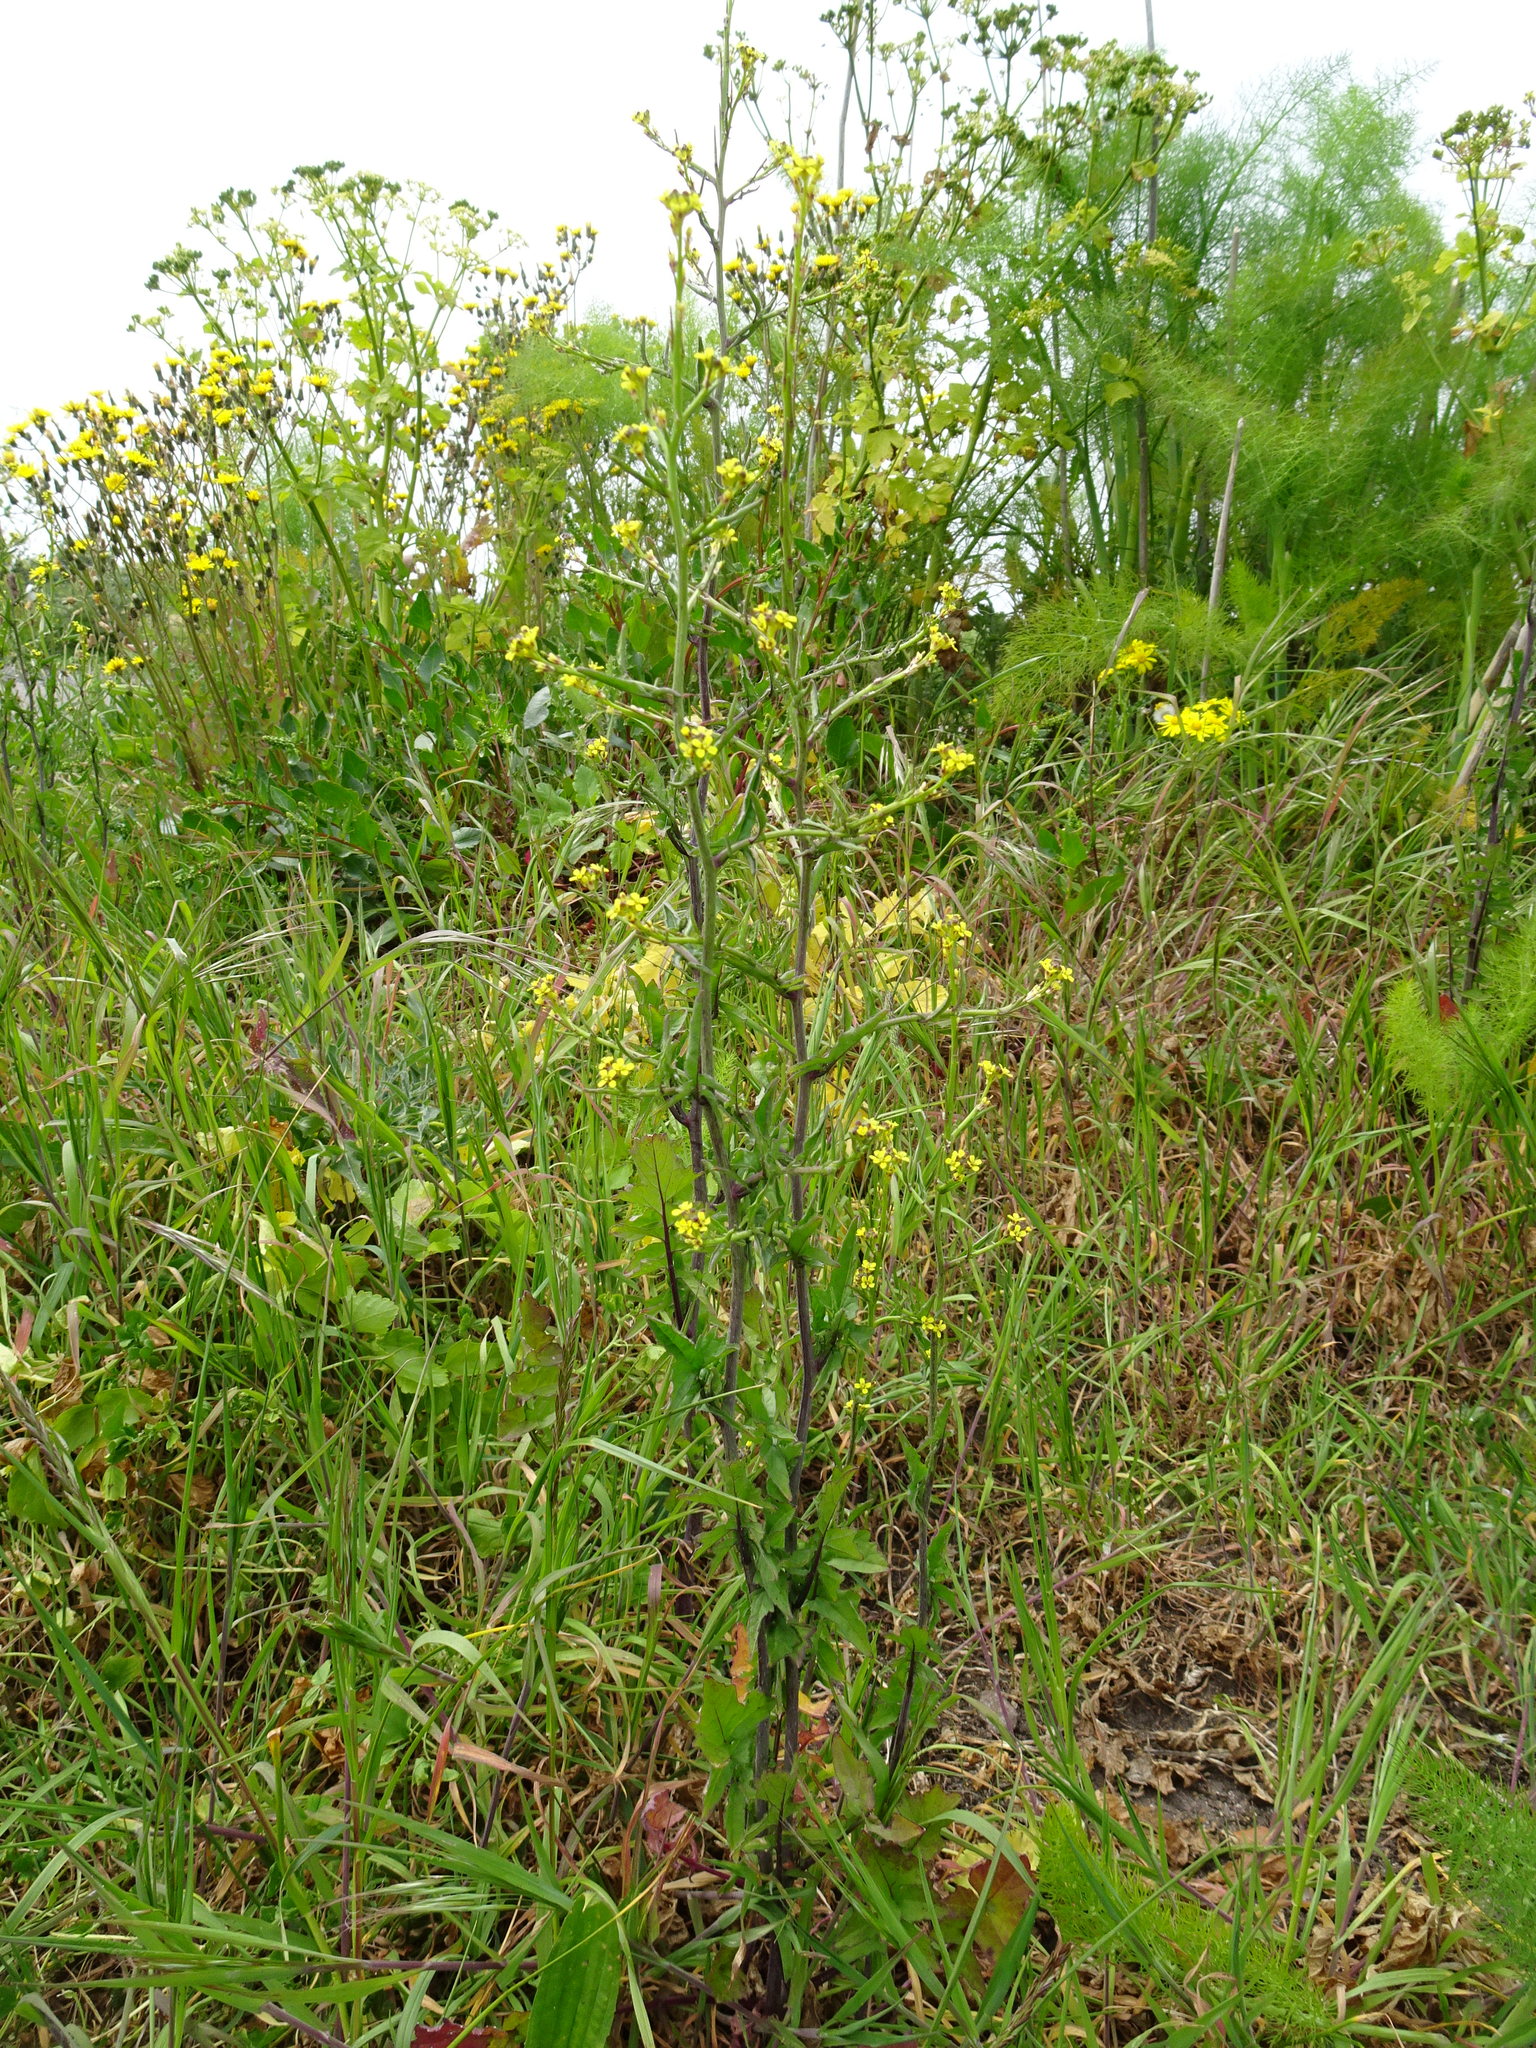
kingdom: Plantae
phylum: Tracheophyta
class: Magnoliopsida
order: Brassicales
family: Brassicaceae
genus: Sisymbrium
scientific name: Sisymbrium officinale
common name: Hedge mustard
